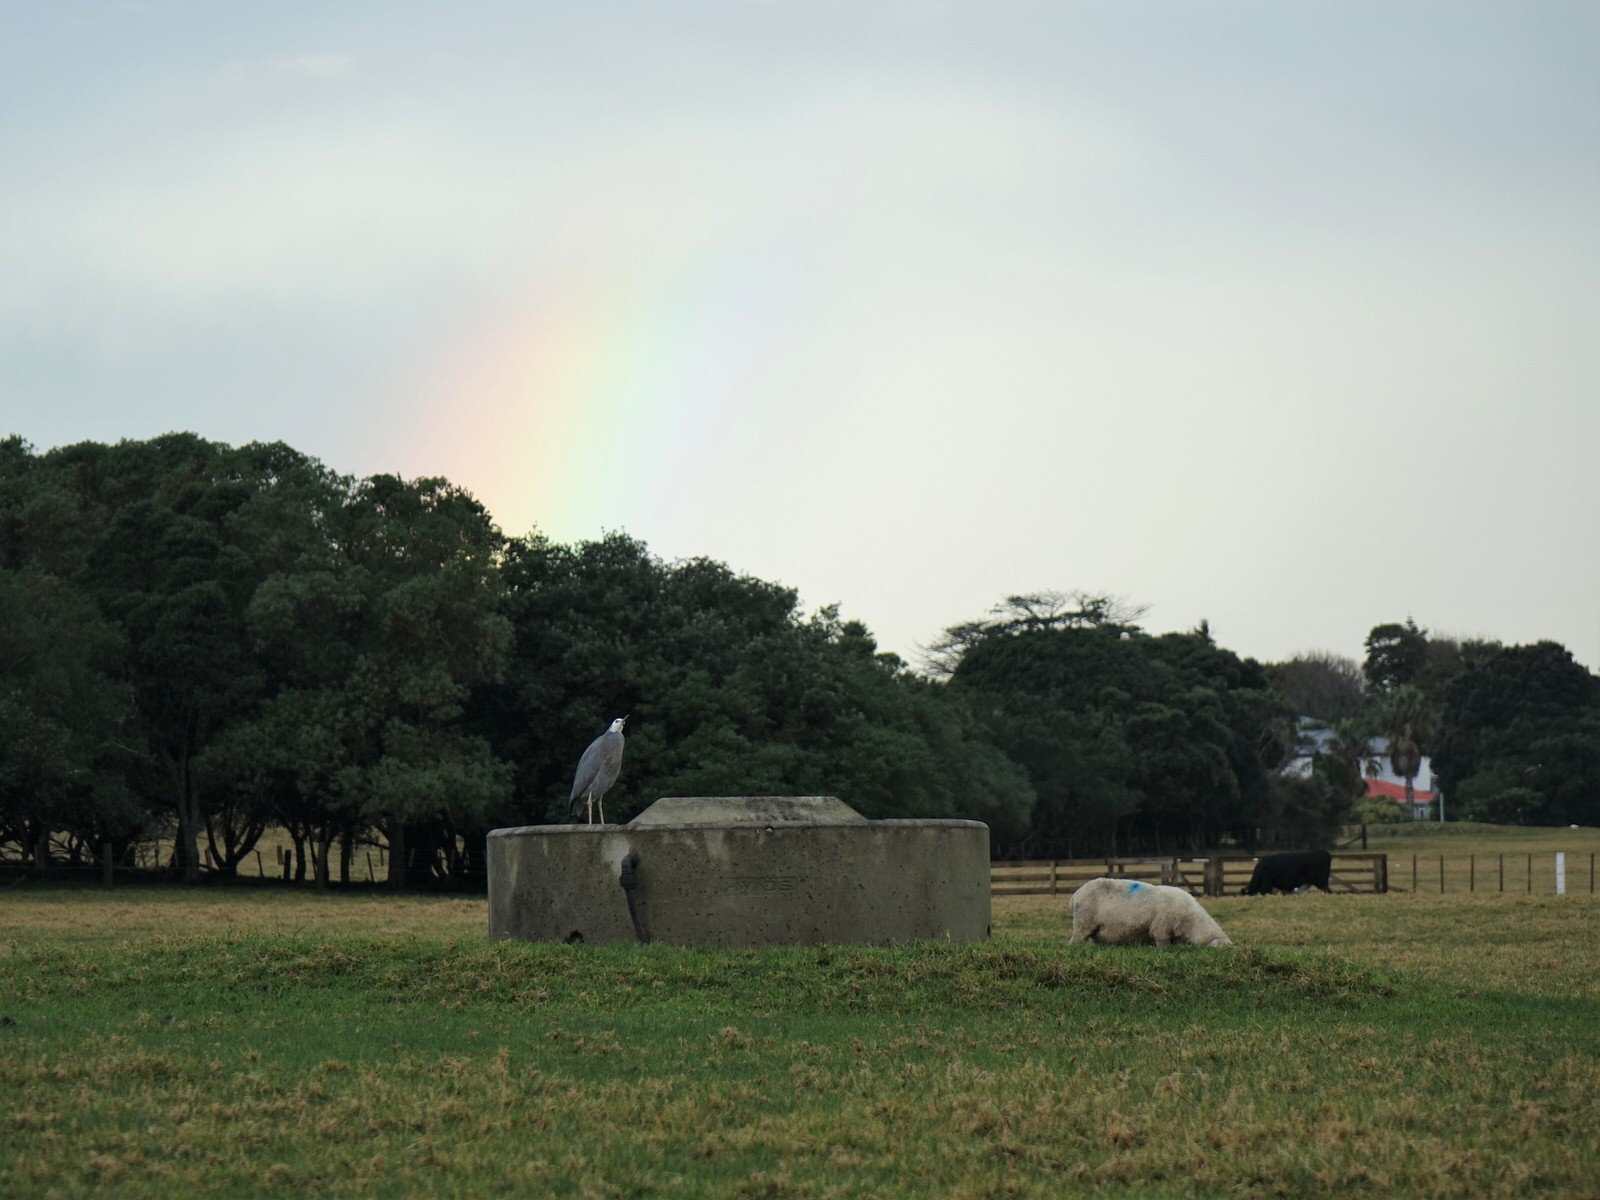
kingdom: Animalia
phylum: Chordata
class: Aves
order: Pelecaniformes
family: Ardeidae
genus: Egretta
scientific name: Egretta novaehollandiae
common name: White-faced heron
